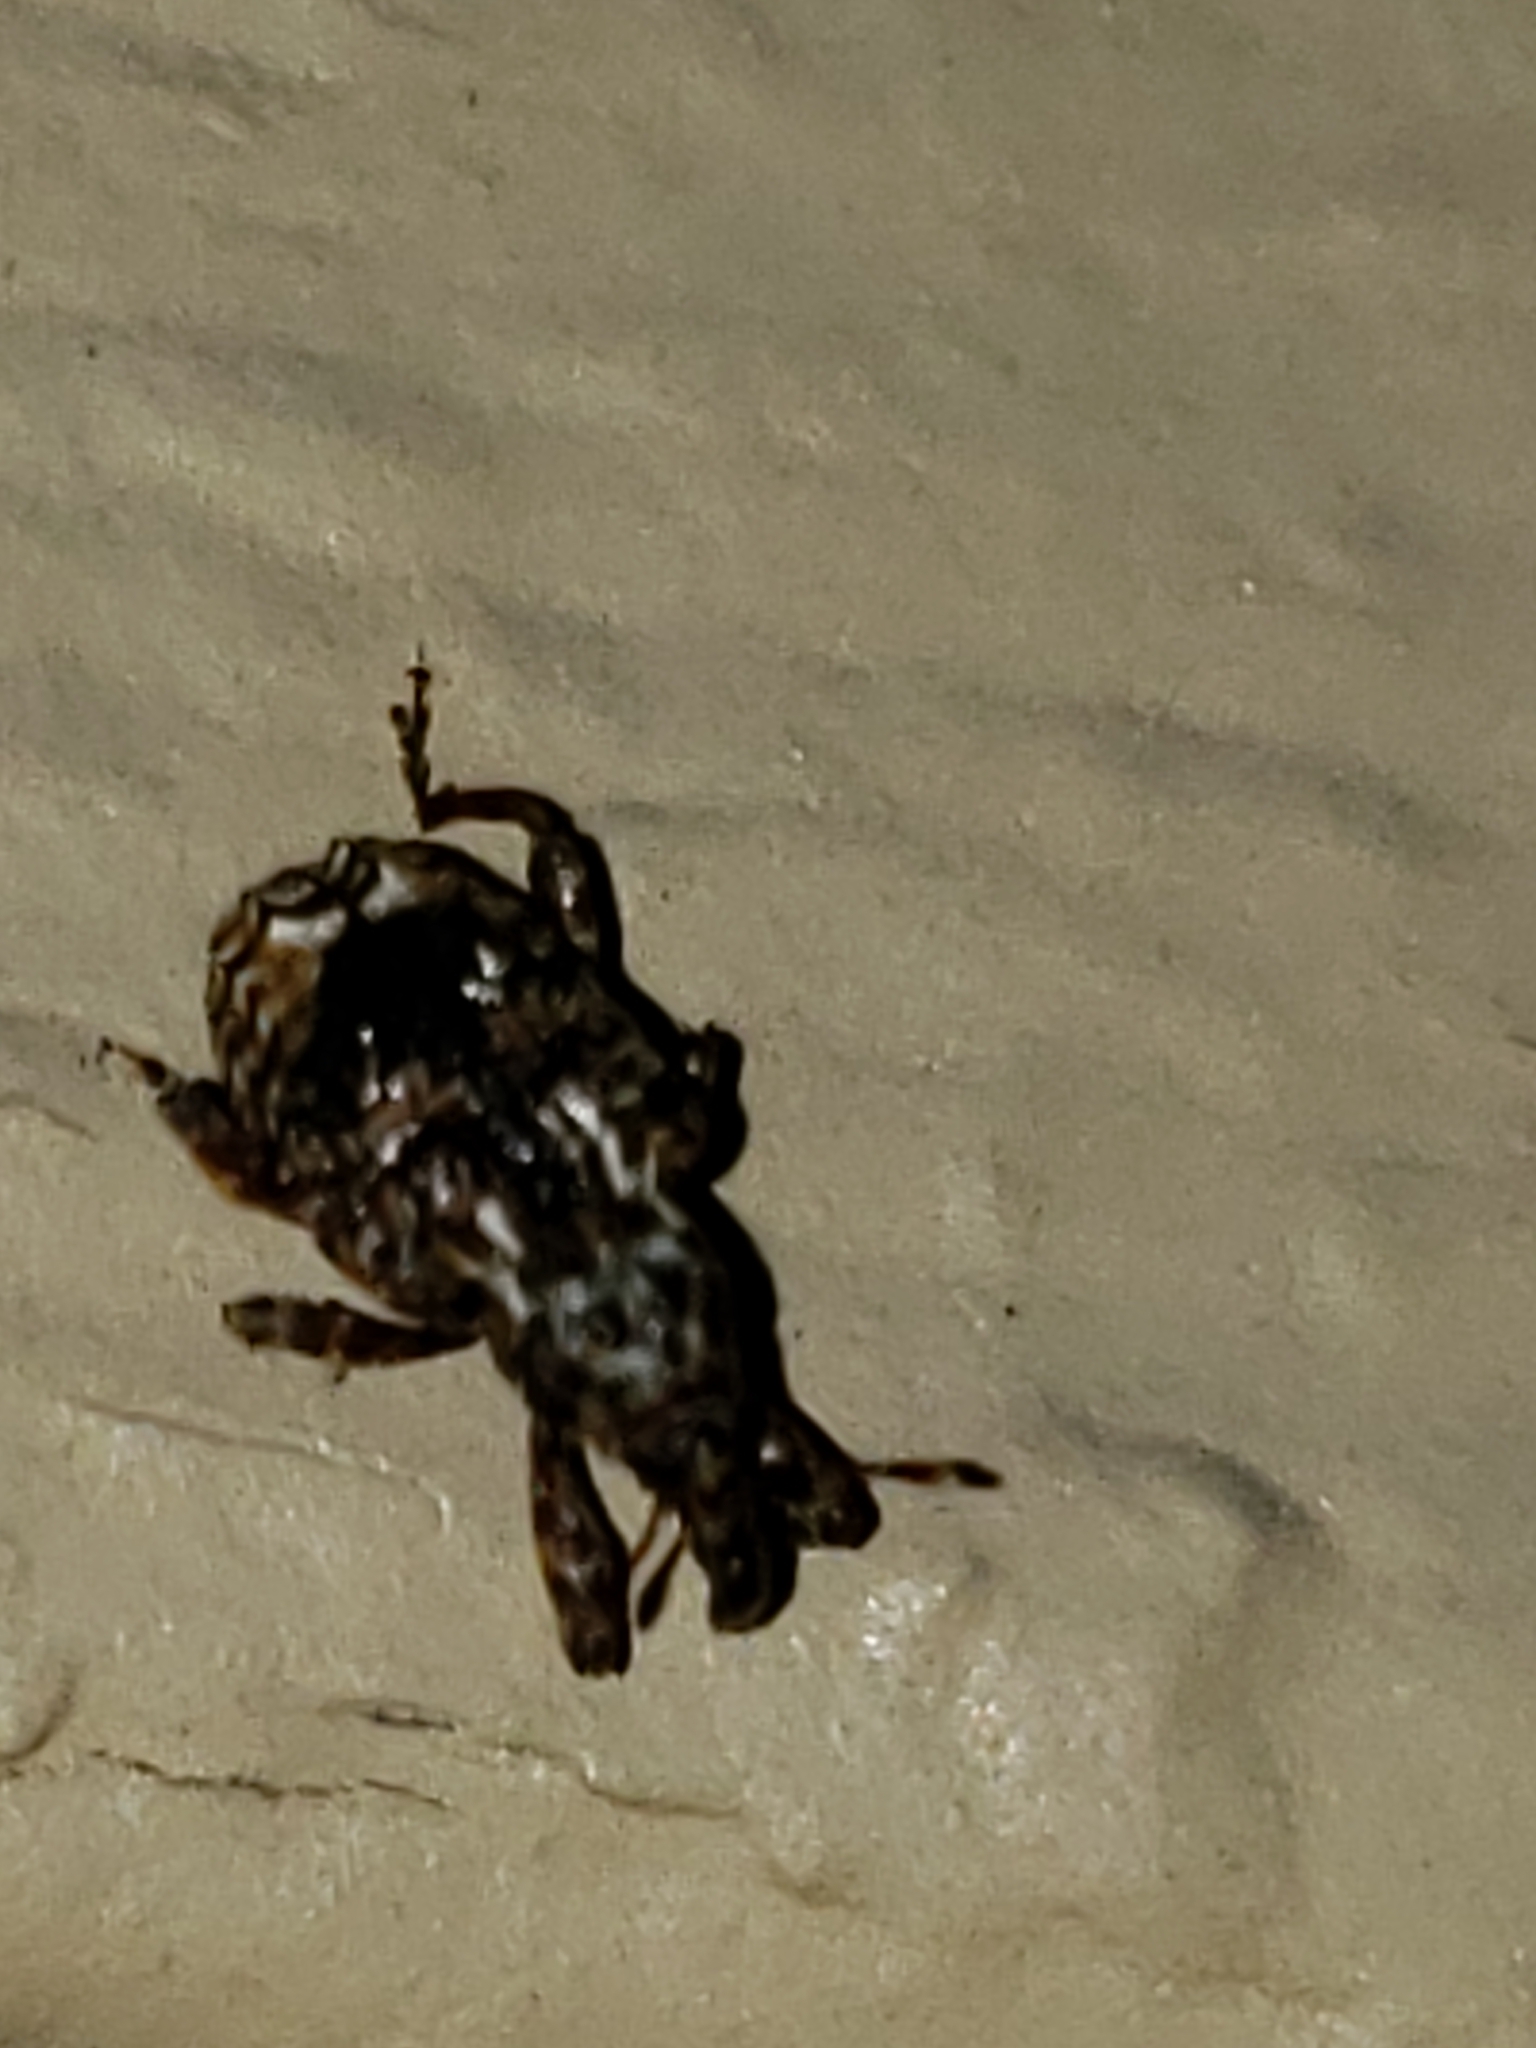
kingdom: Animalia
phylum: Arthropoda
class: Insecta
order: Coleoptera
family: Curculionidae
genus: Conotrachelus
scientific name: Conotrachelus nenuphar
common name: Plum curculio
